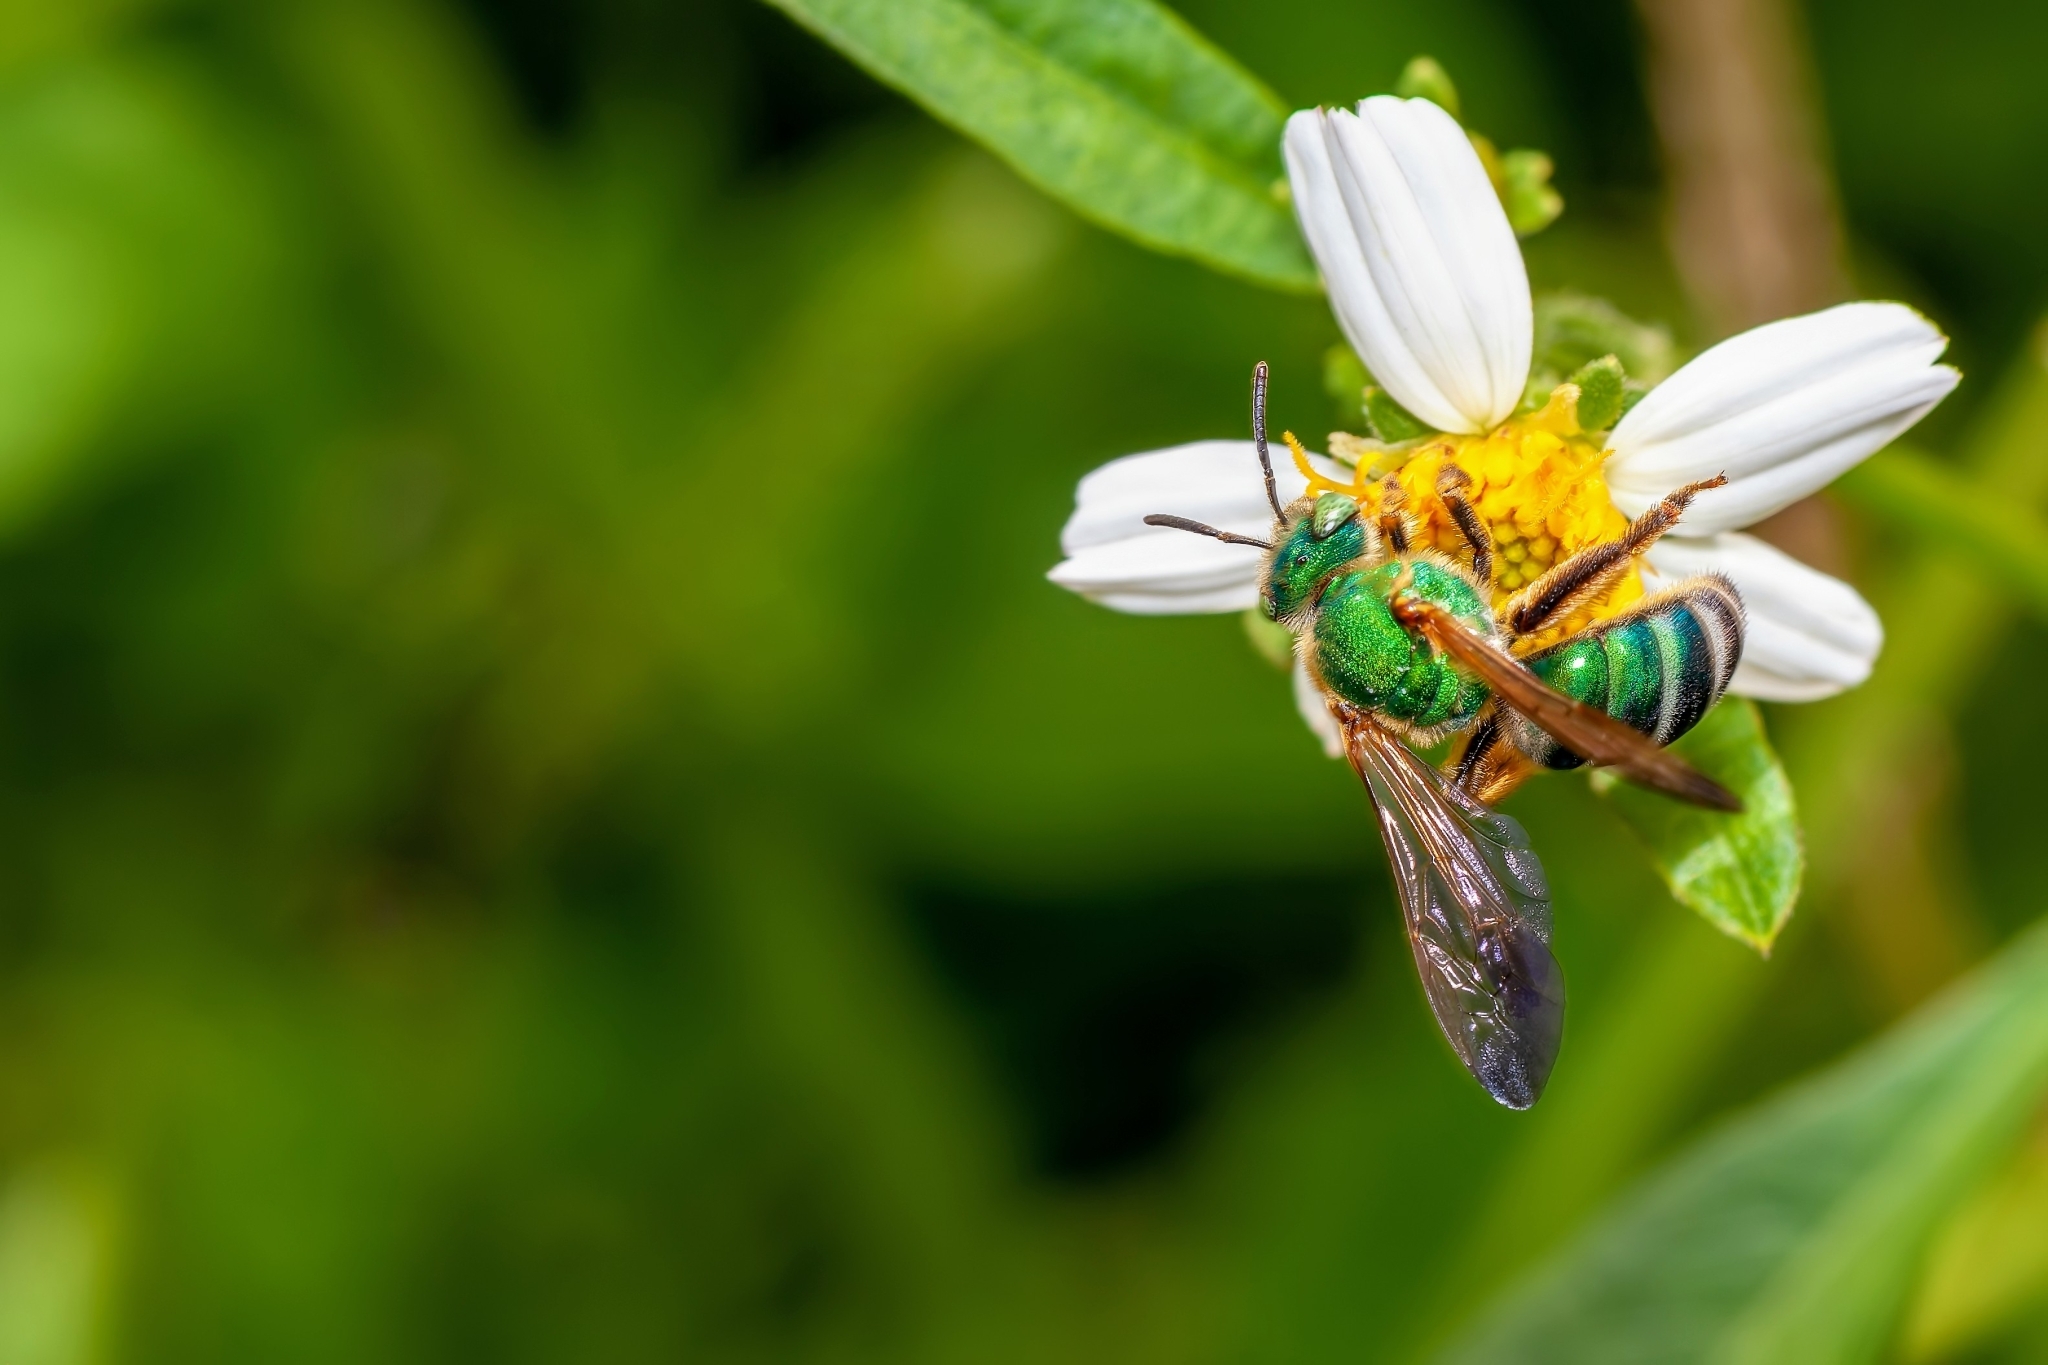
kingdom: Animalia
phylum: Arthropoda
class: Insecta
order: Hymenoptera
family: Halictidae
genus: Agapostemon
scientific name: Agapostemon splendens
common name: Brown-winged striped sweat bee
